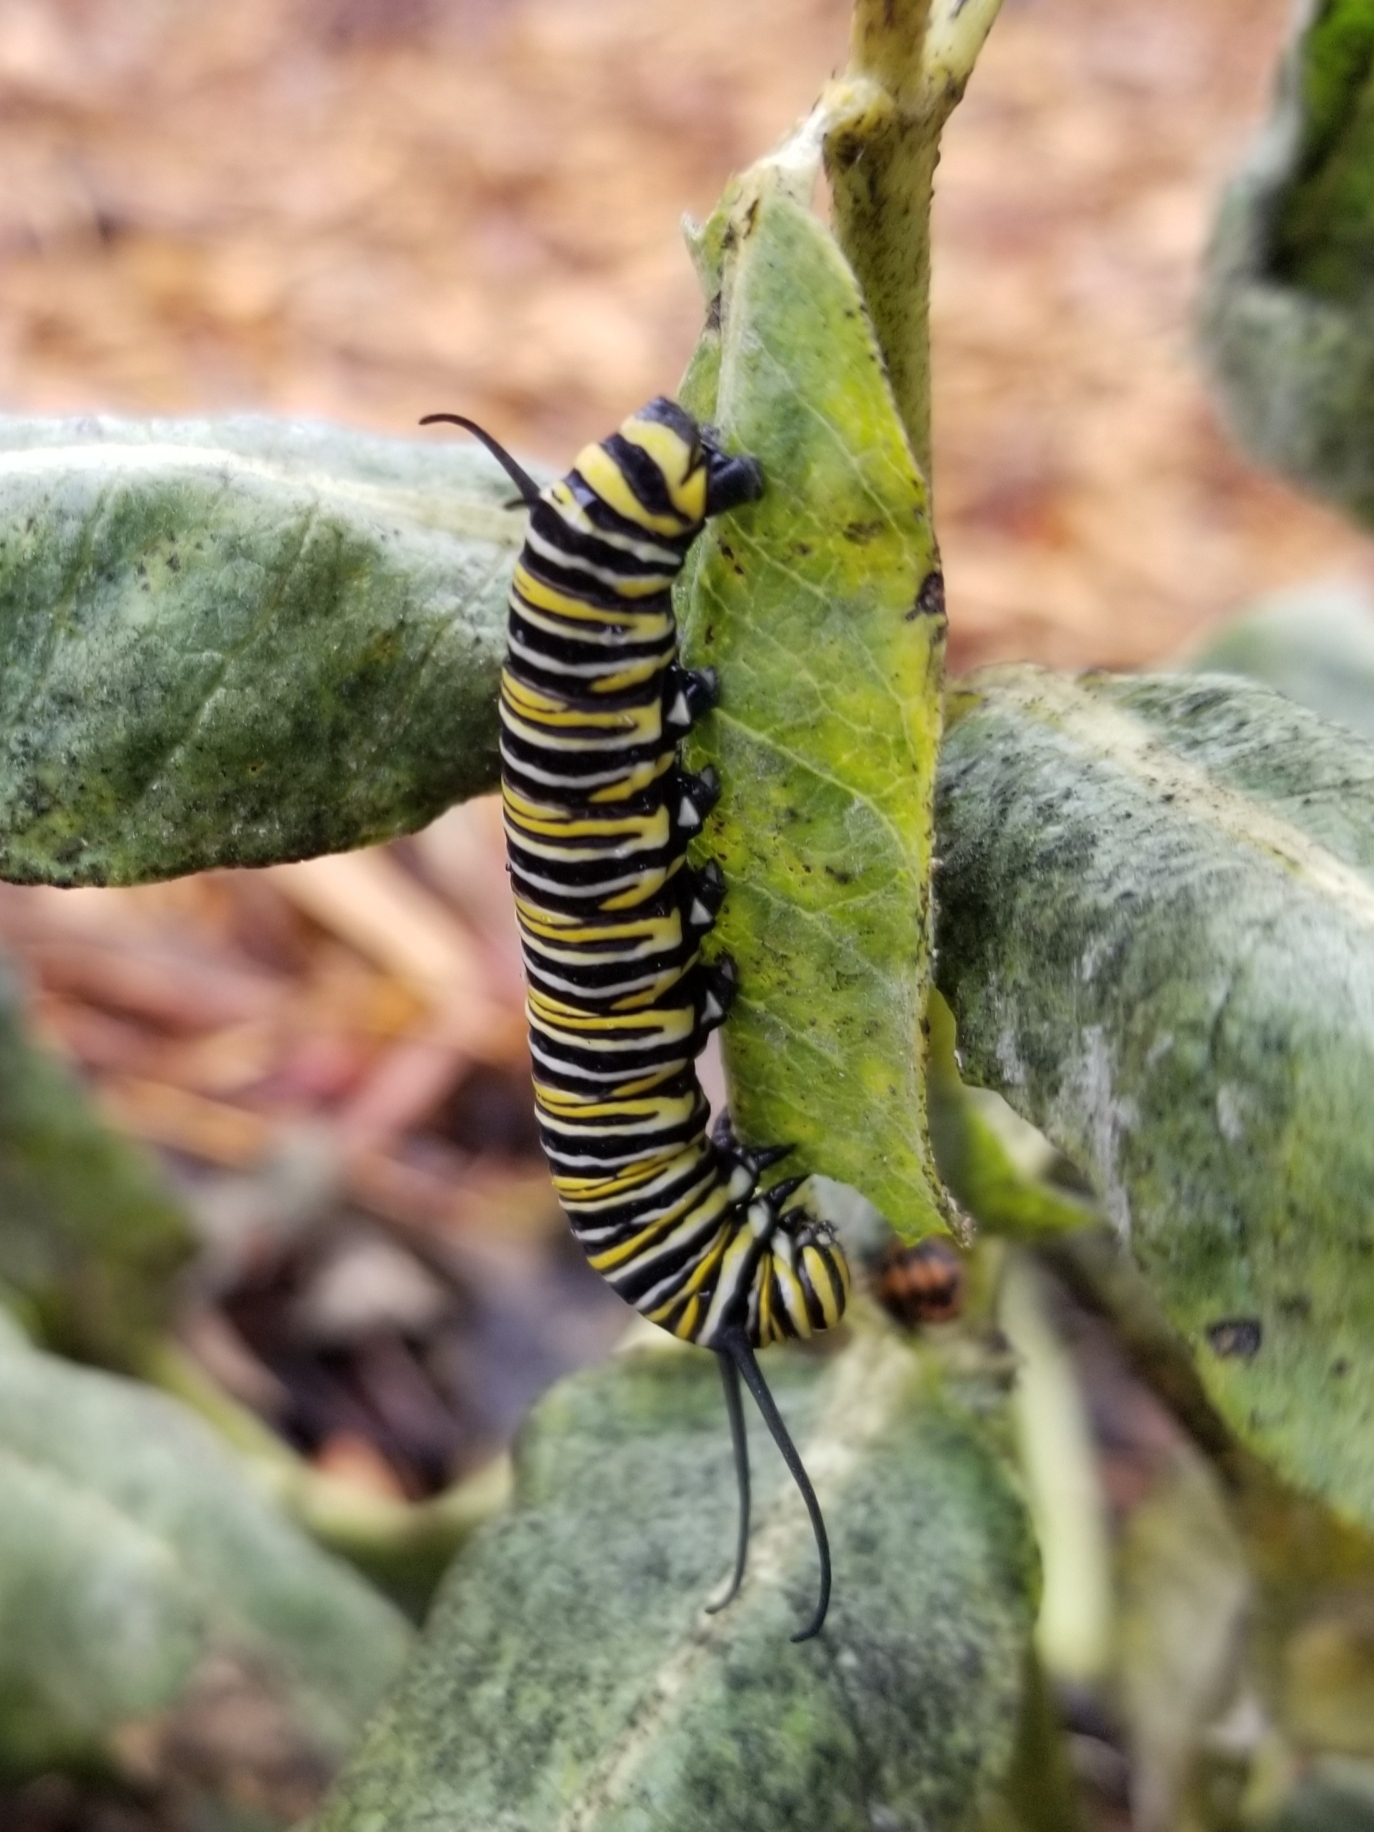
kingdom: Animalia
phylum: Arthropoda
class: Insecta
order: Lepidoptera
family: Nymphalidae
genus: Danaus
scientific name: Danaus plexippus
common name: Monarch
